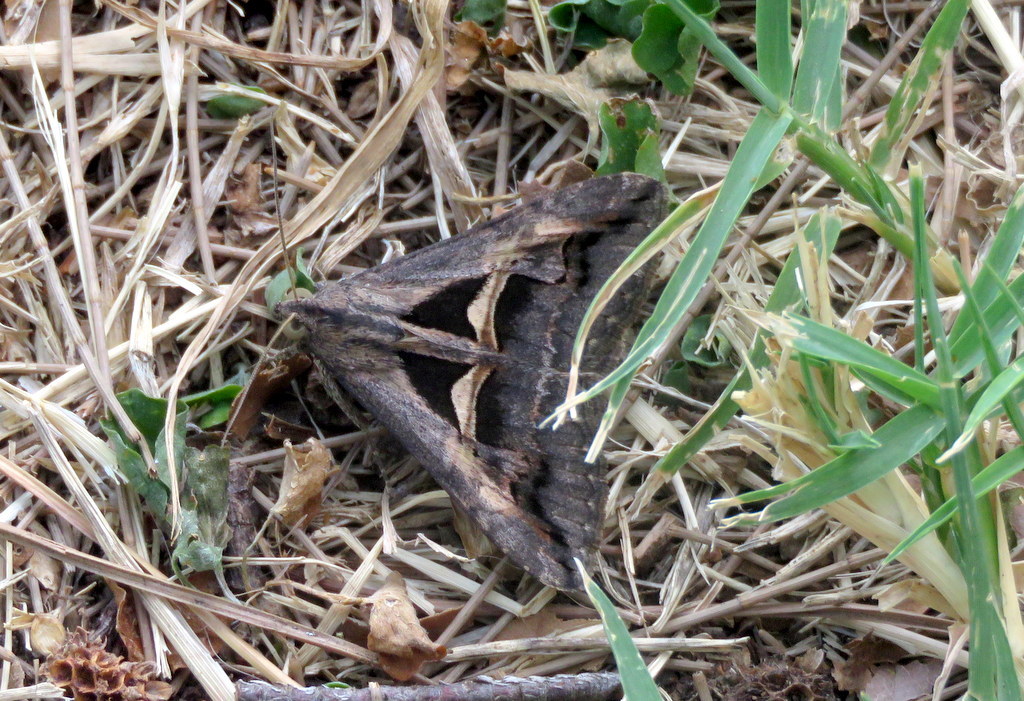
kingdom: Animalia
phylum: Arthropoda
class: Insecta
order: Lepidoptera
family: Erebidae
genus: Melipotis
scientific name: Melipotis cellaris
